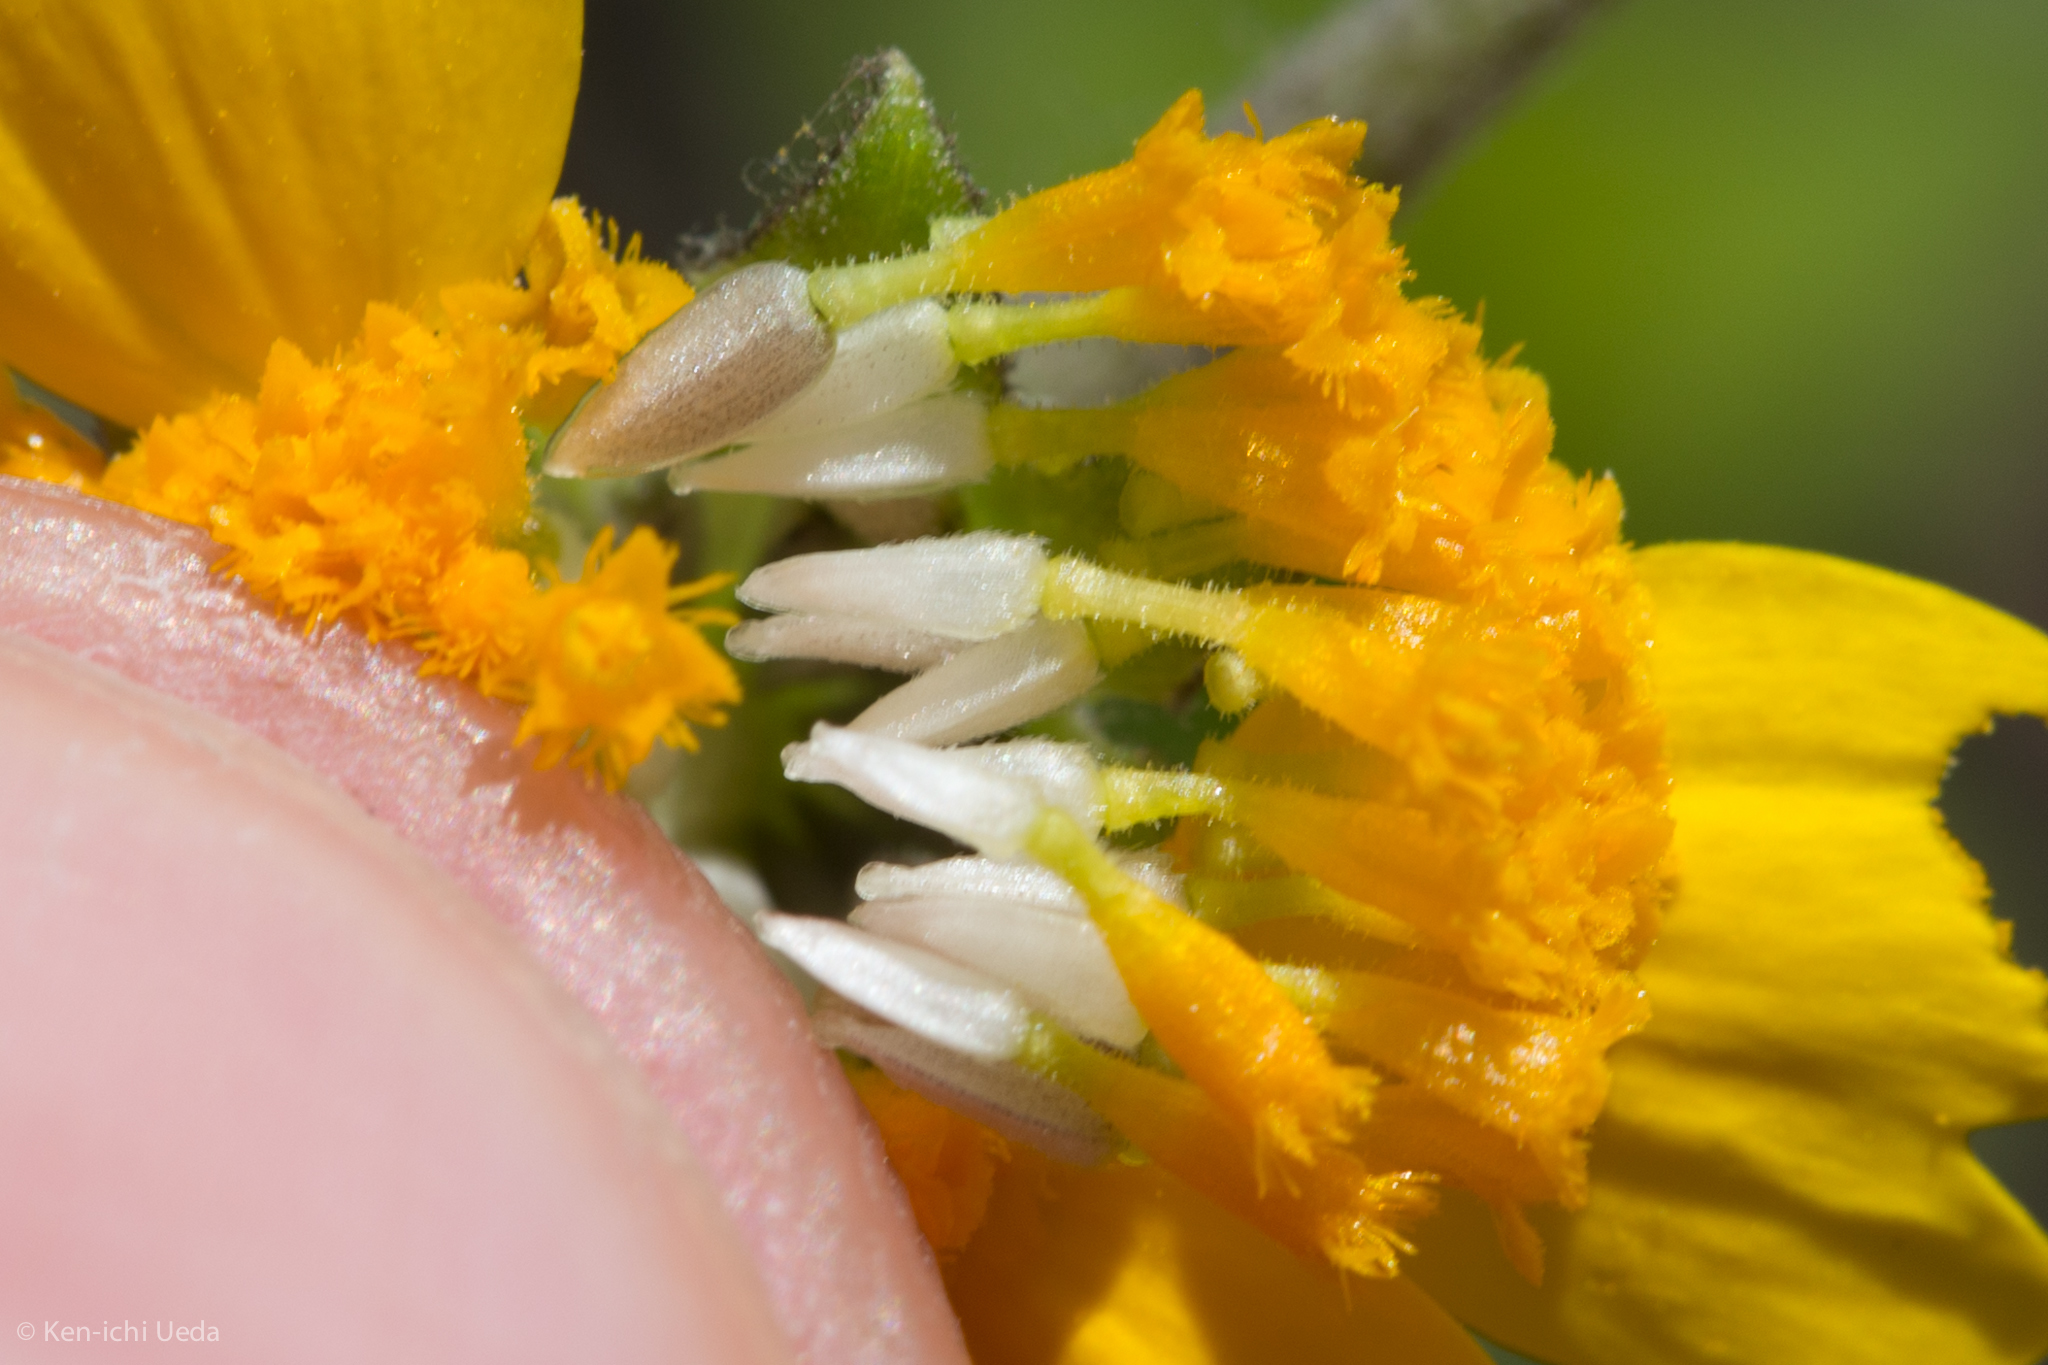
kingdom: Plantae
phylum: Tracheophyta
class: Magnoliopsida
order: Asterales
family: Asteraceae
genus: Monolopia
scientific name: Monolopia major
